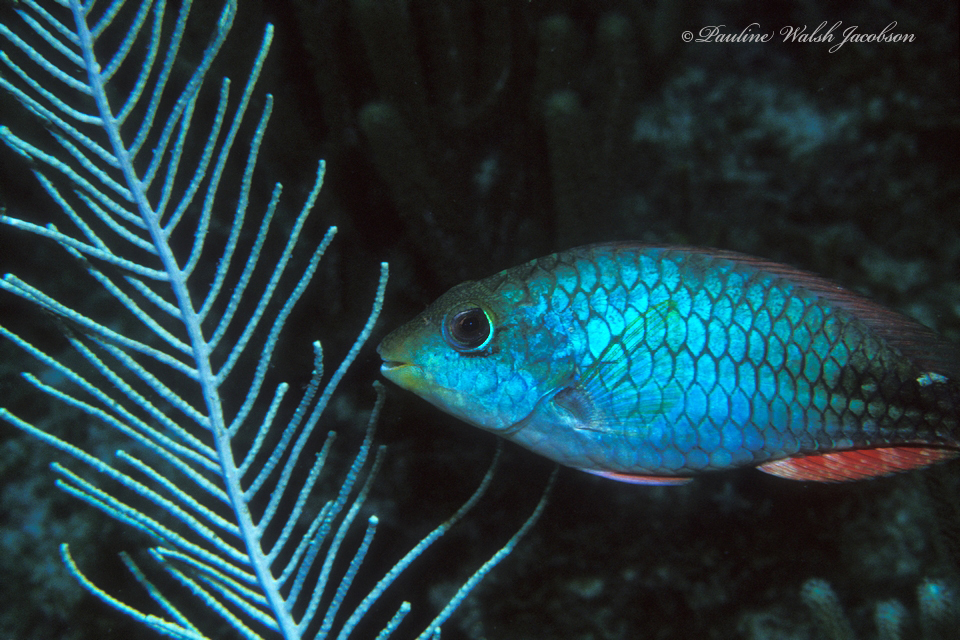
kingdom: Animalia
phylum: Chordata
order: Perciformes
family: Scaridae
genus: Sparisoma
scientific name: Sparisoma aurofrenatum
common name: Redband parrotfish
